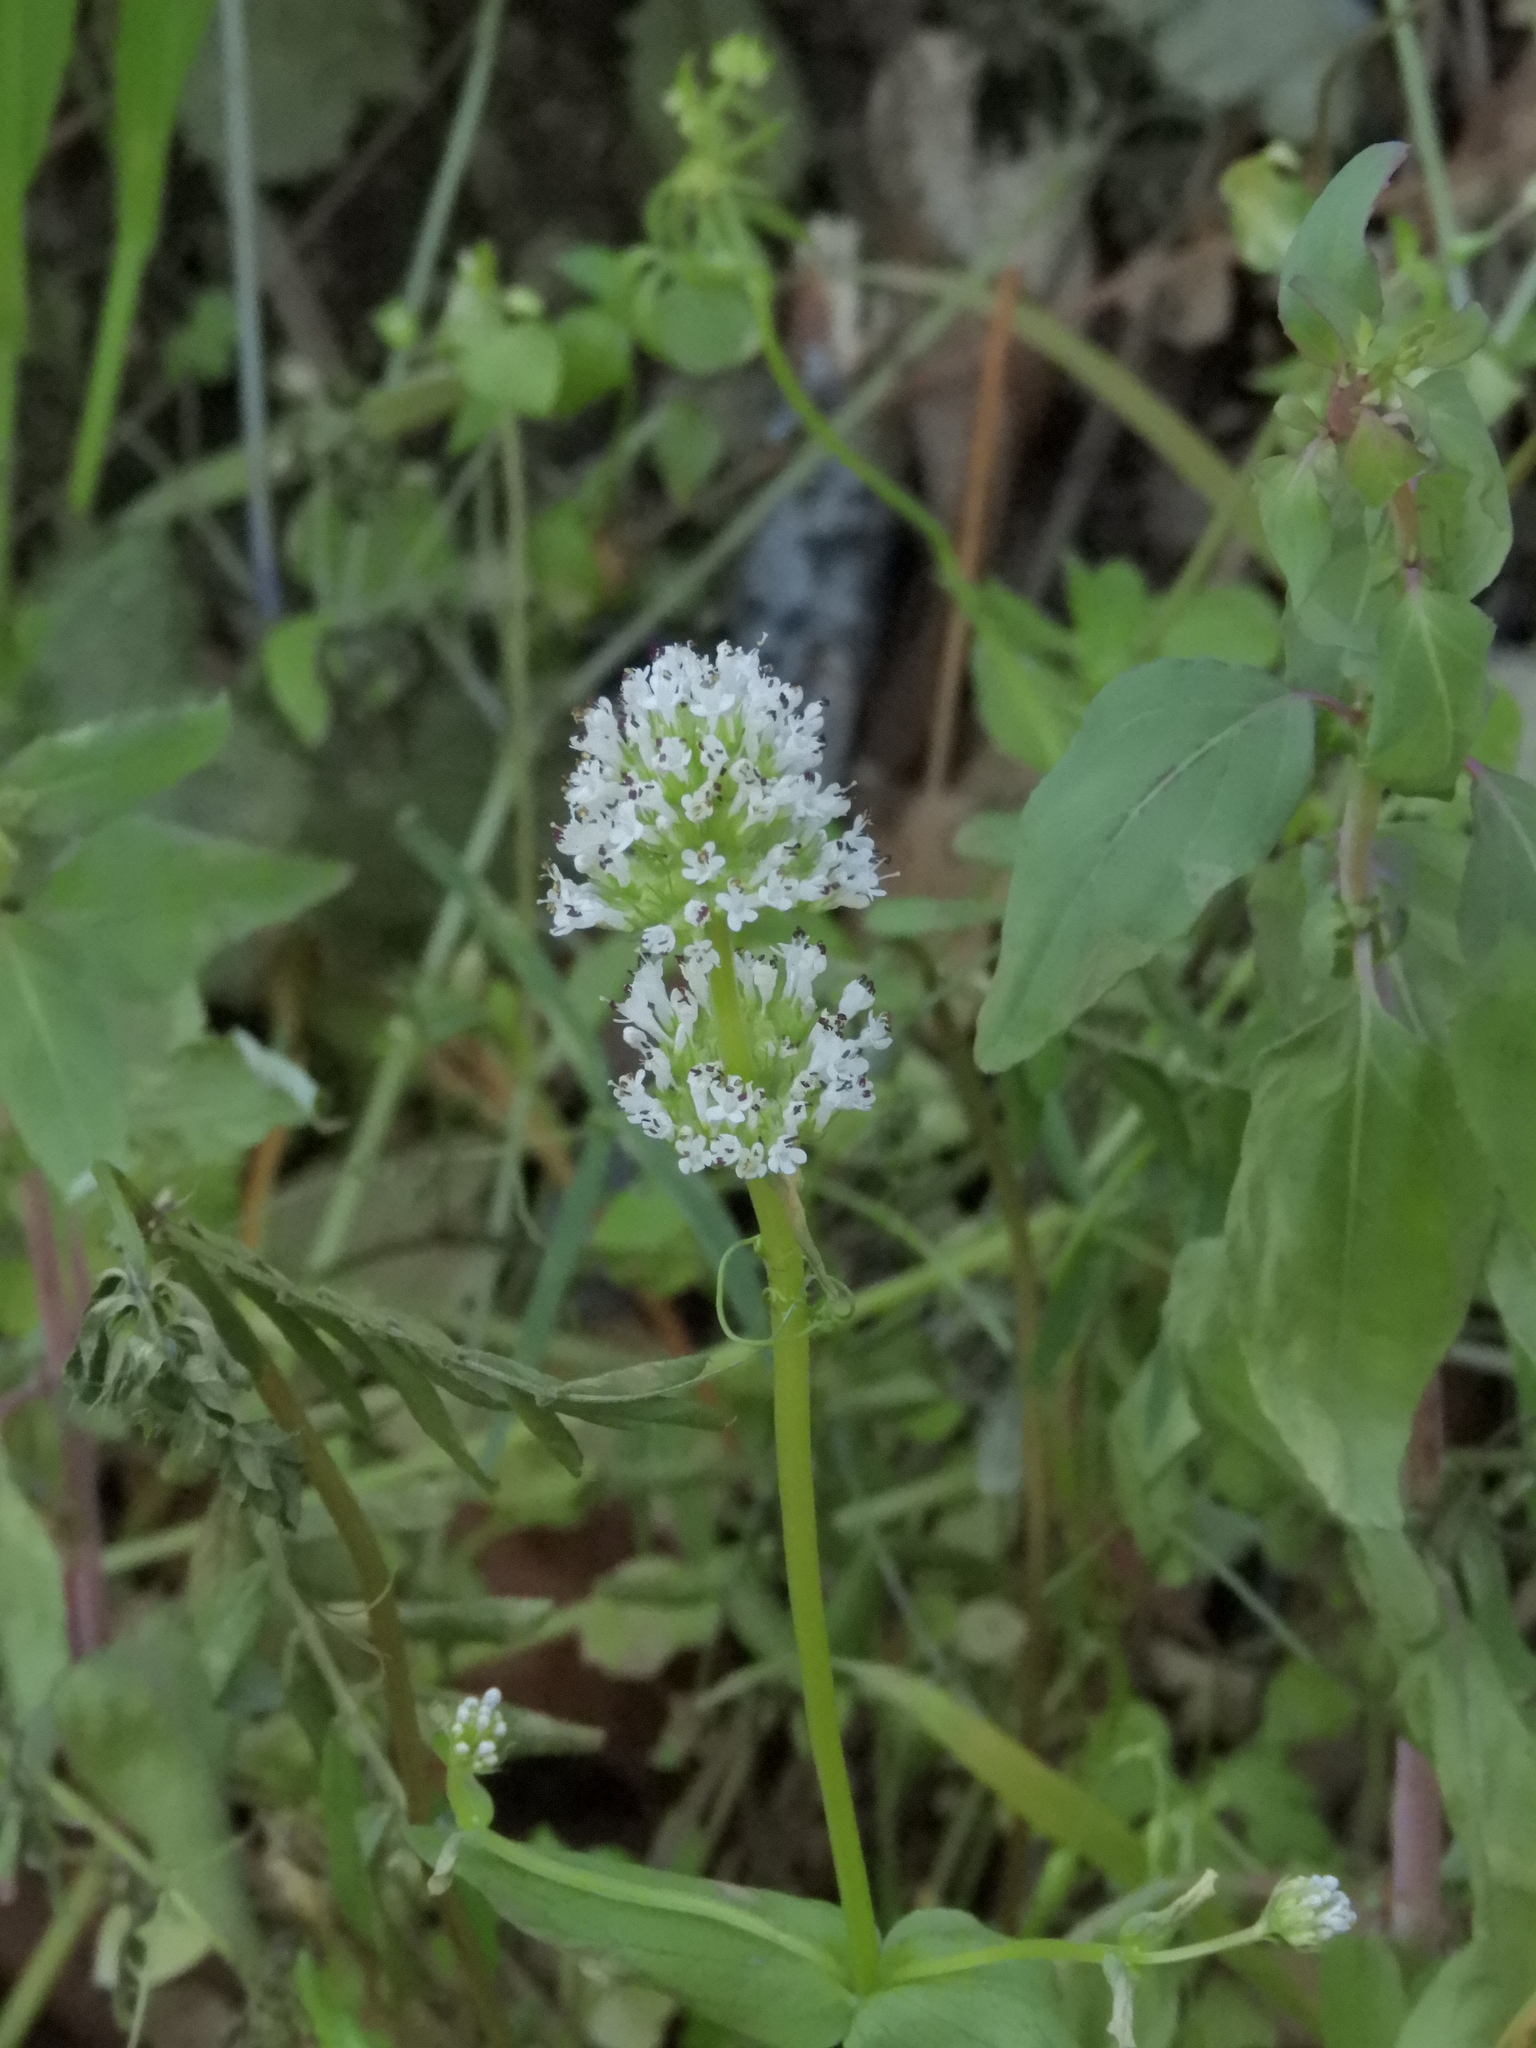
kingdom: Plantae
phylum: Tracheophyta
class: Magnoliopsida
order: Dipsacales
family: Caprifoliaceae
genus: Plectritis
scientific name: Plectritis macroptera
